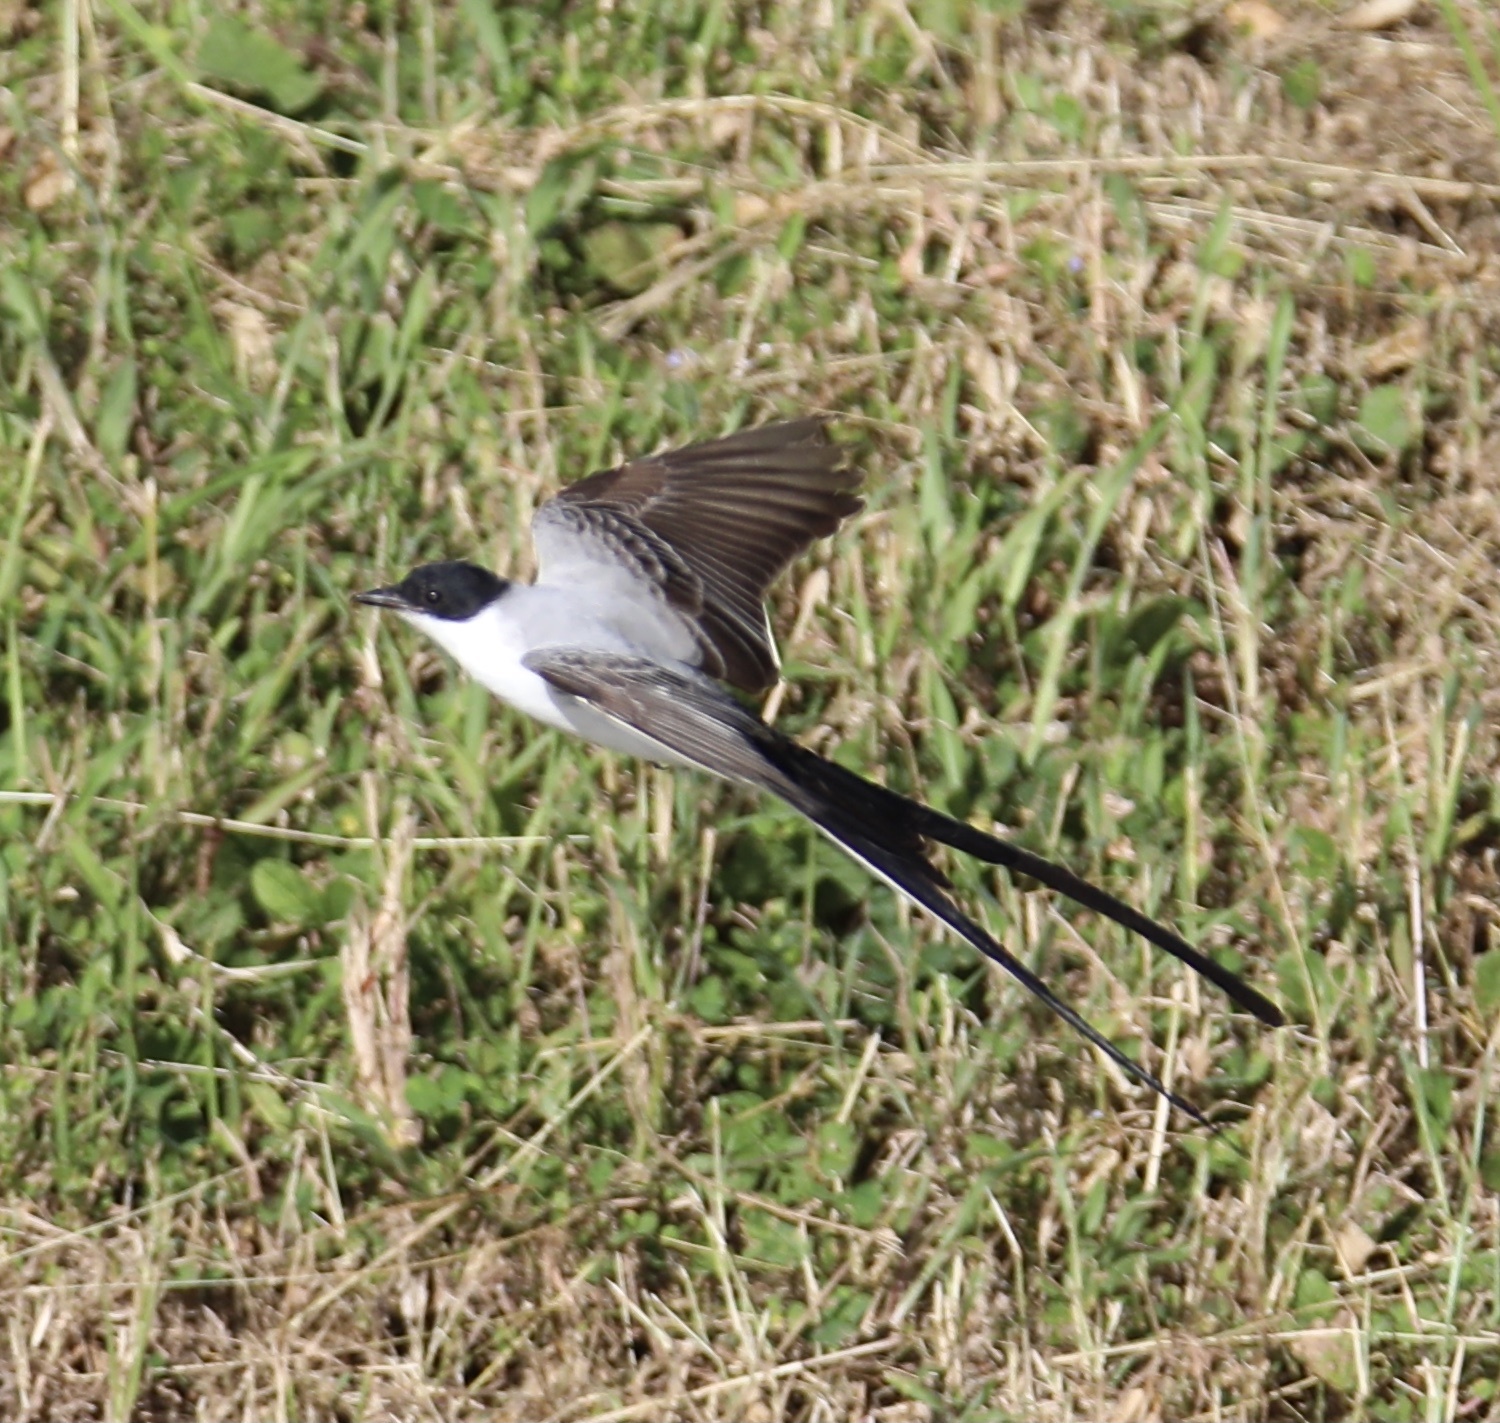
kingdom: Animalia
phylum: Chordata
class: Aves
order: Passeriformes
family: Tyrannidae
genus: Tyrannus
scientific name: Tyrannus savana
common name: Fork-tailed flycatcher
